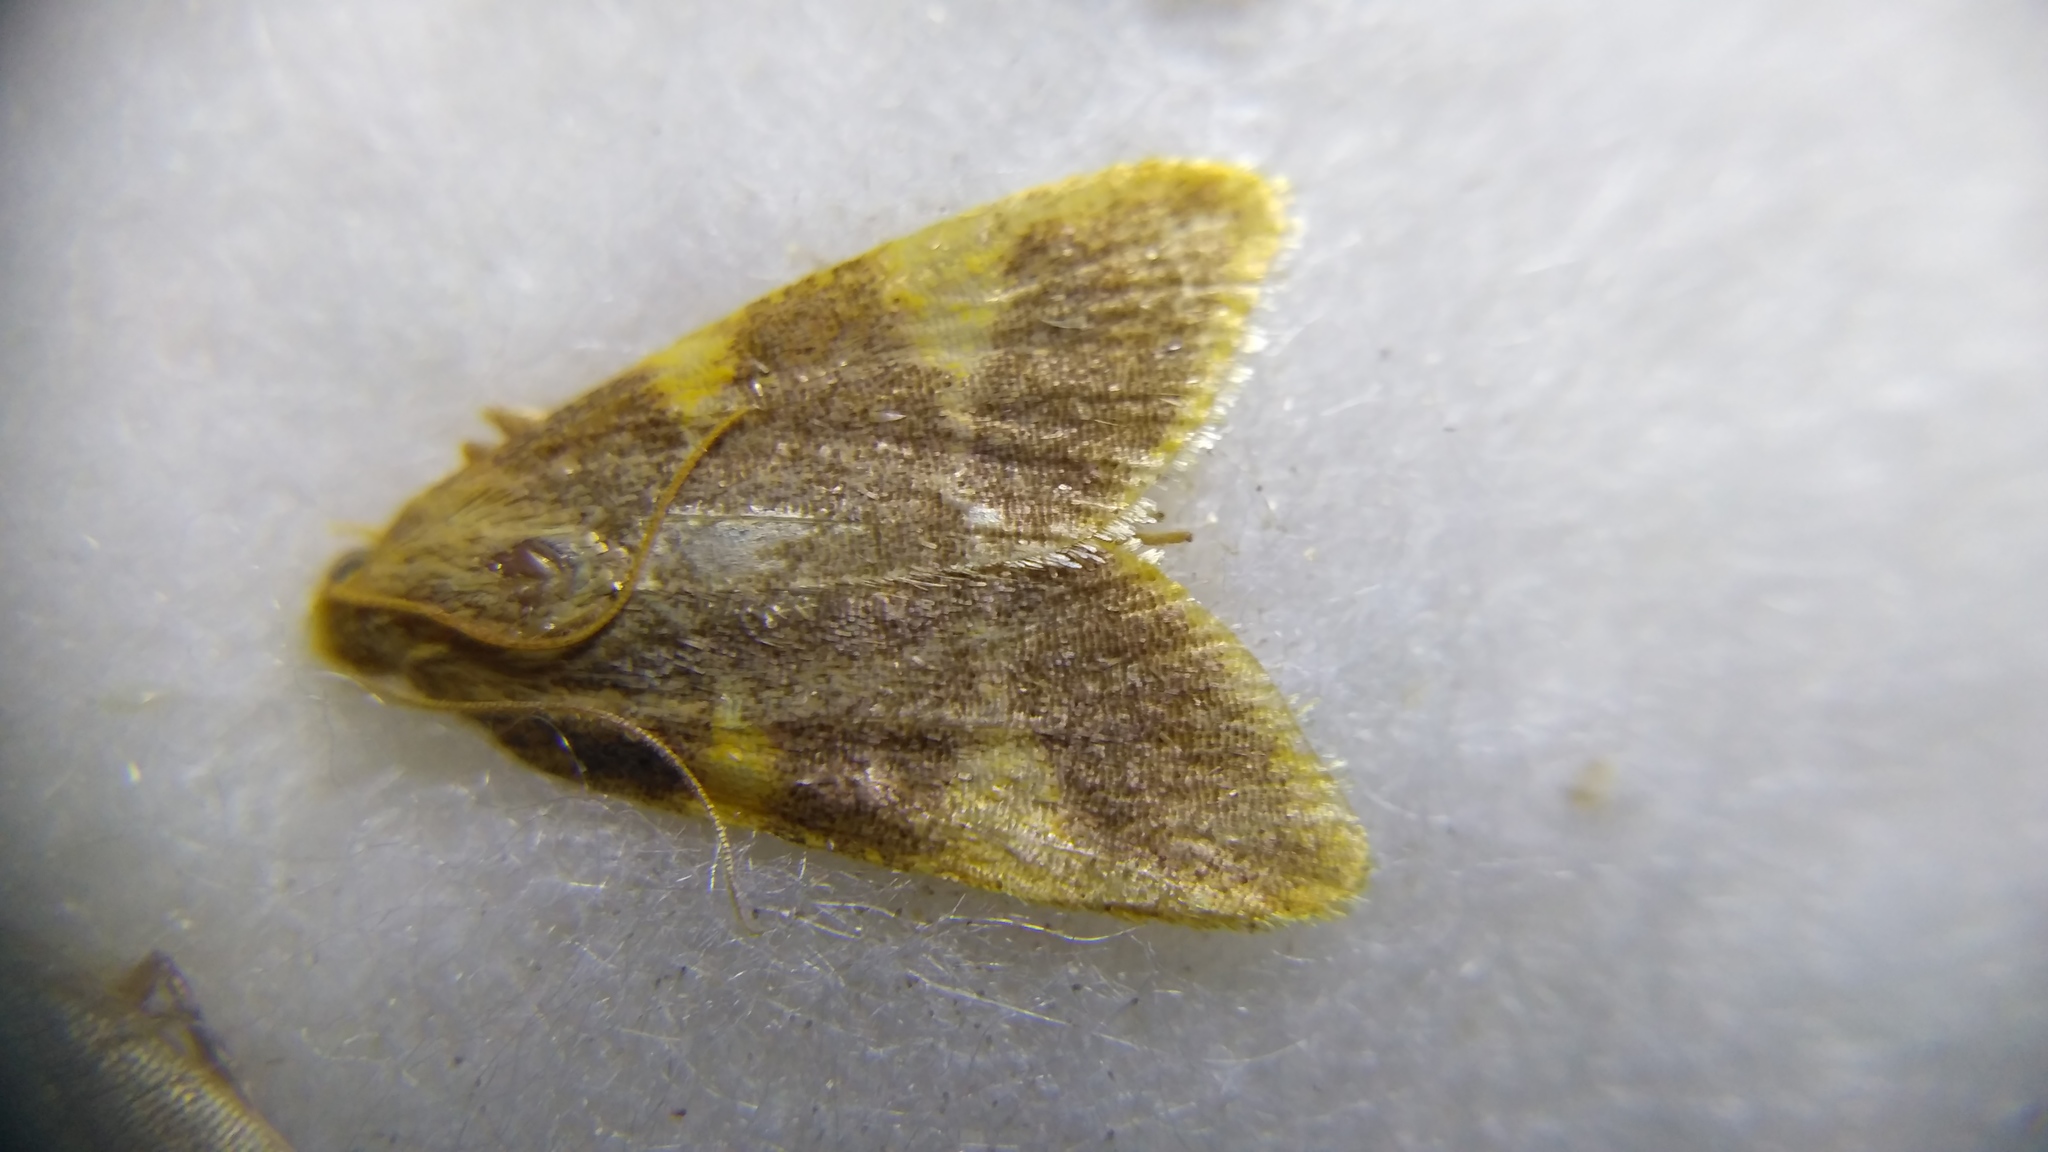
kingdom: Animalia
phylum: Arthropoda
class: Insecta
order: Lepidoptera
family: Pyralidae
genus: Hypsopygia
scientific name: Hypsopygia costalis
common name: Gold triangle
